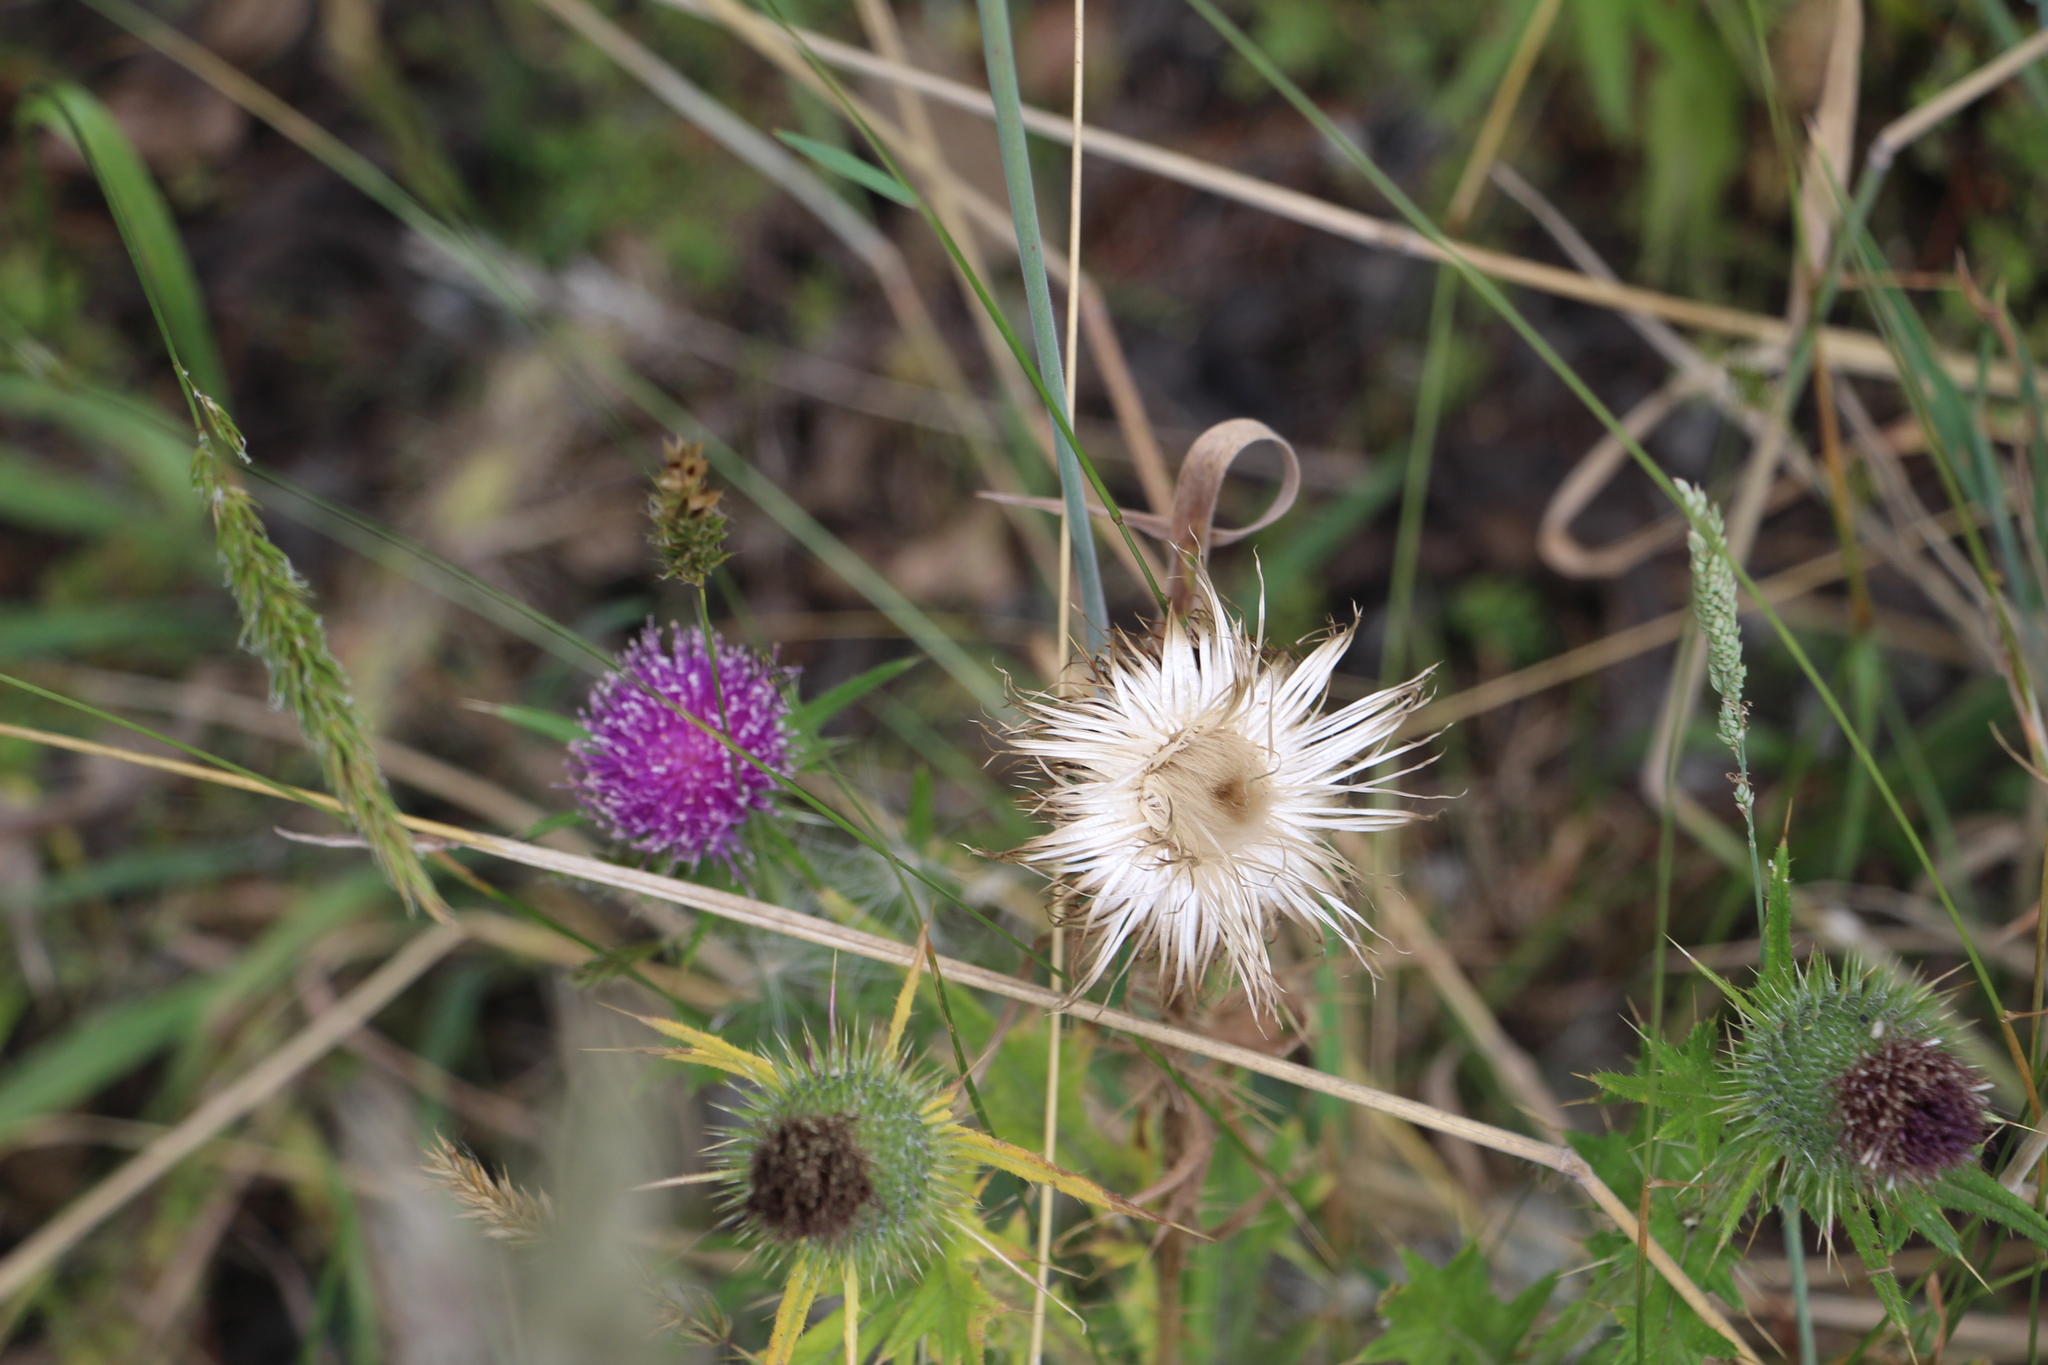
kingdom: Plantae
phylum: Tracheophyta
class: Magnoliopsida
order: Asterales
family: Asteraceae
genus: Cirsium
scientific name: Cirsium vulgare
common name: Bull thistle
